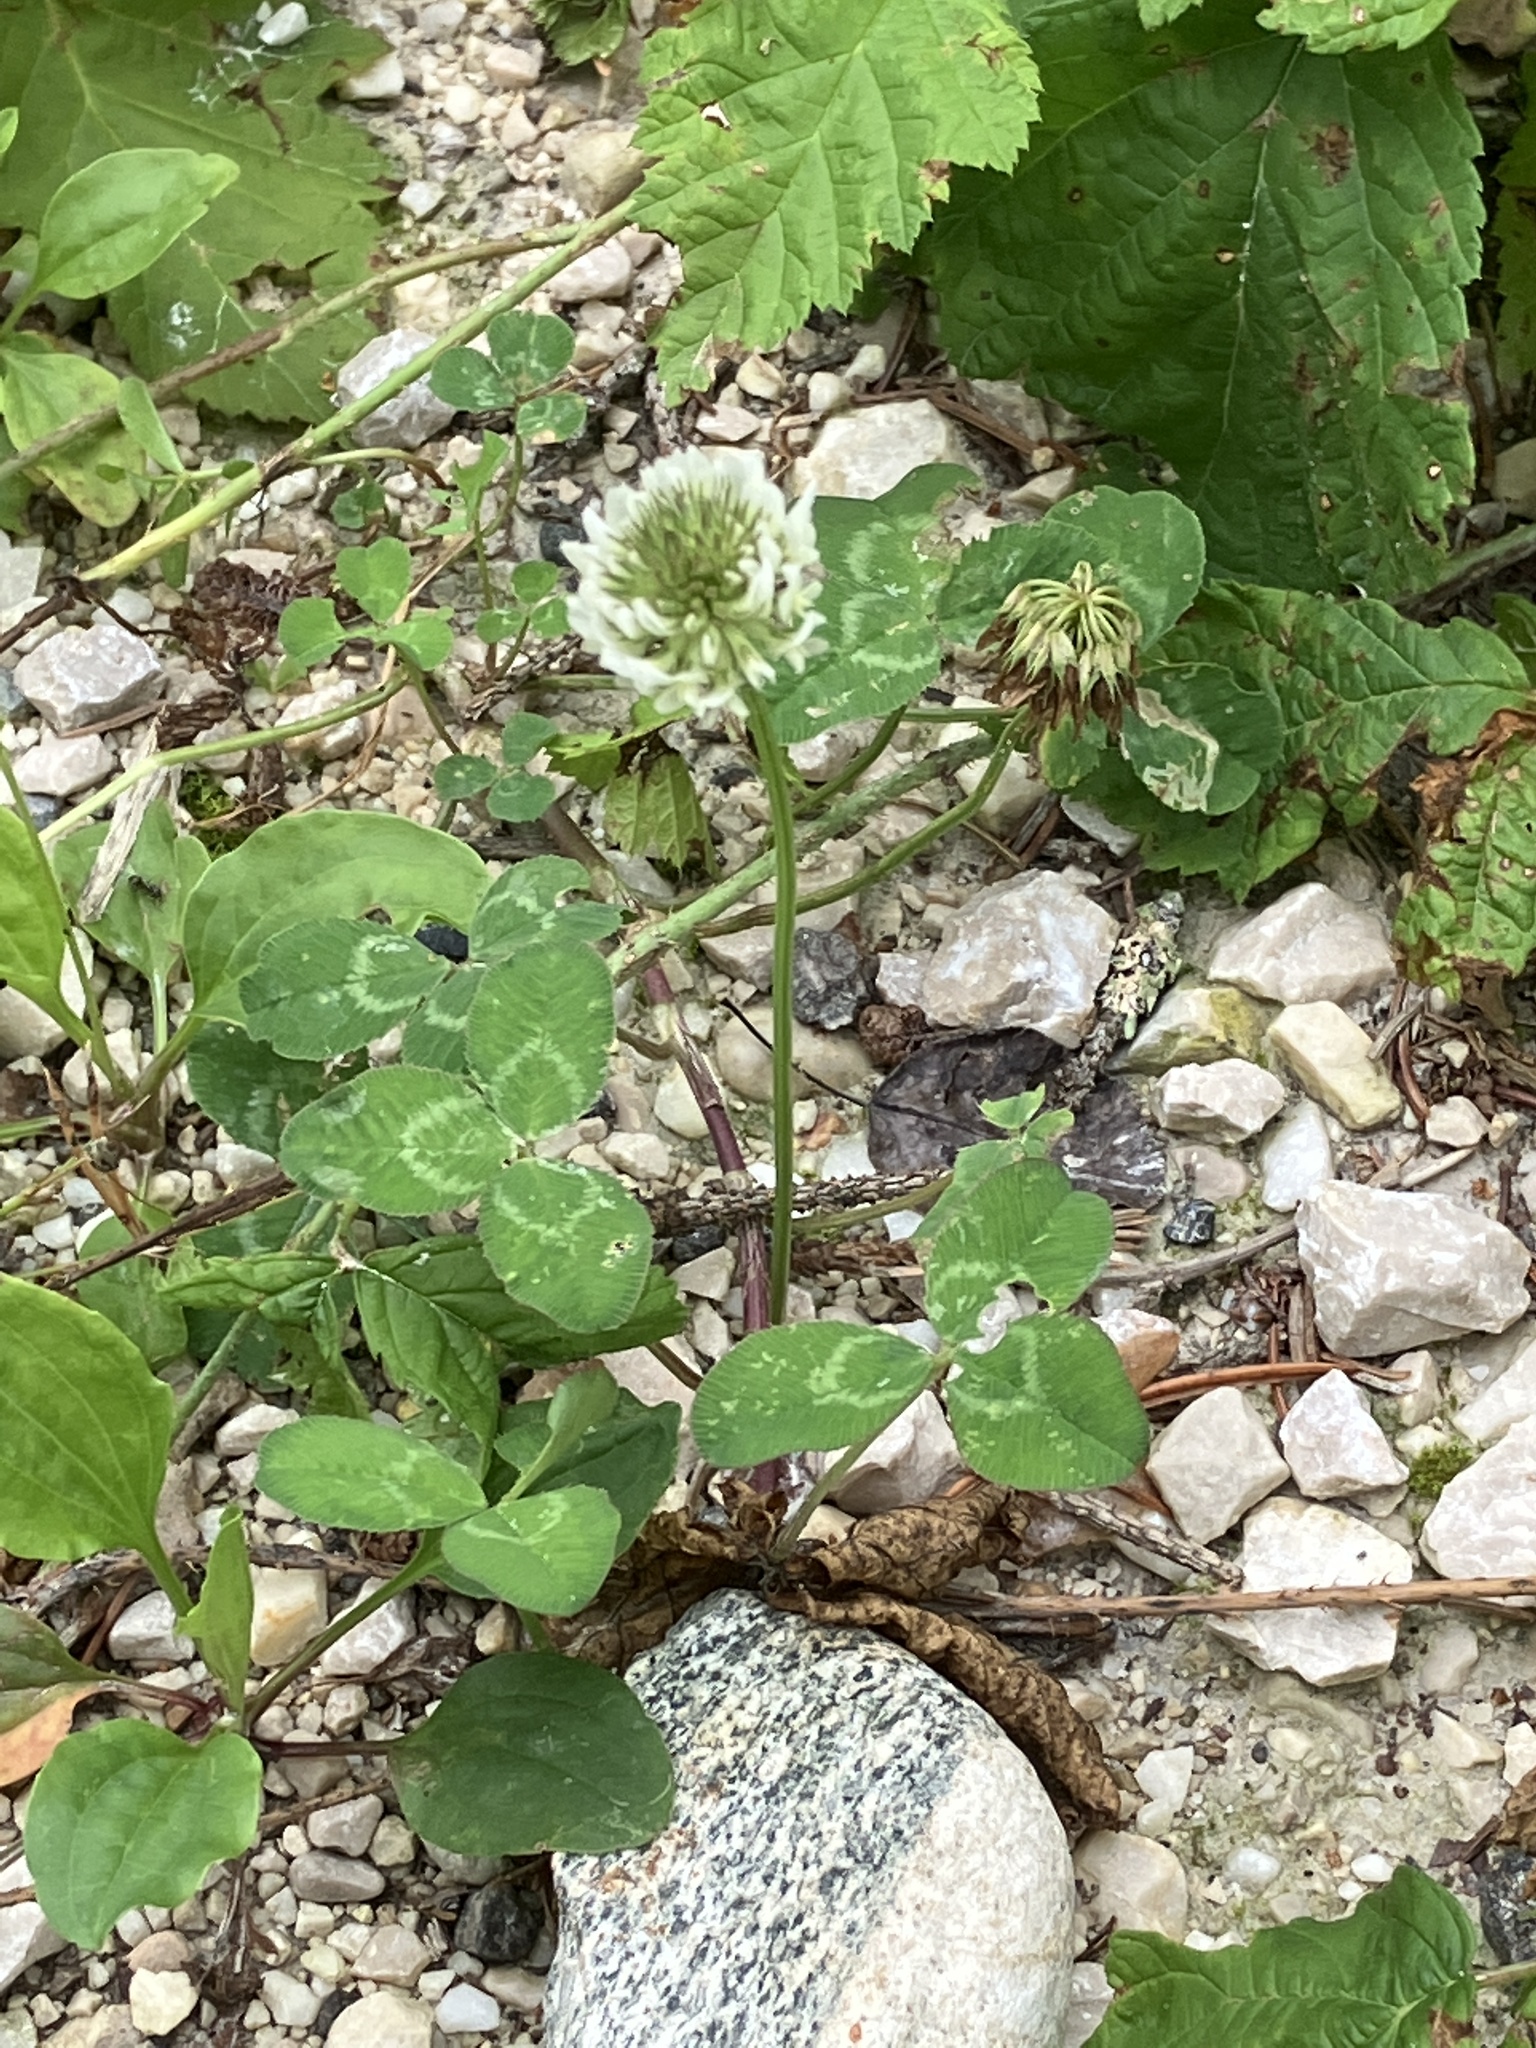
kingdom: Plantae
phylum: Tracheophyta
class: Magnoliopsida
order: Fabales
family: Fabaceae
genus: Trifolium
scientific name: Trifolium repens
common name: White clover
